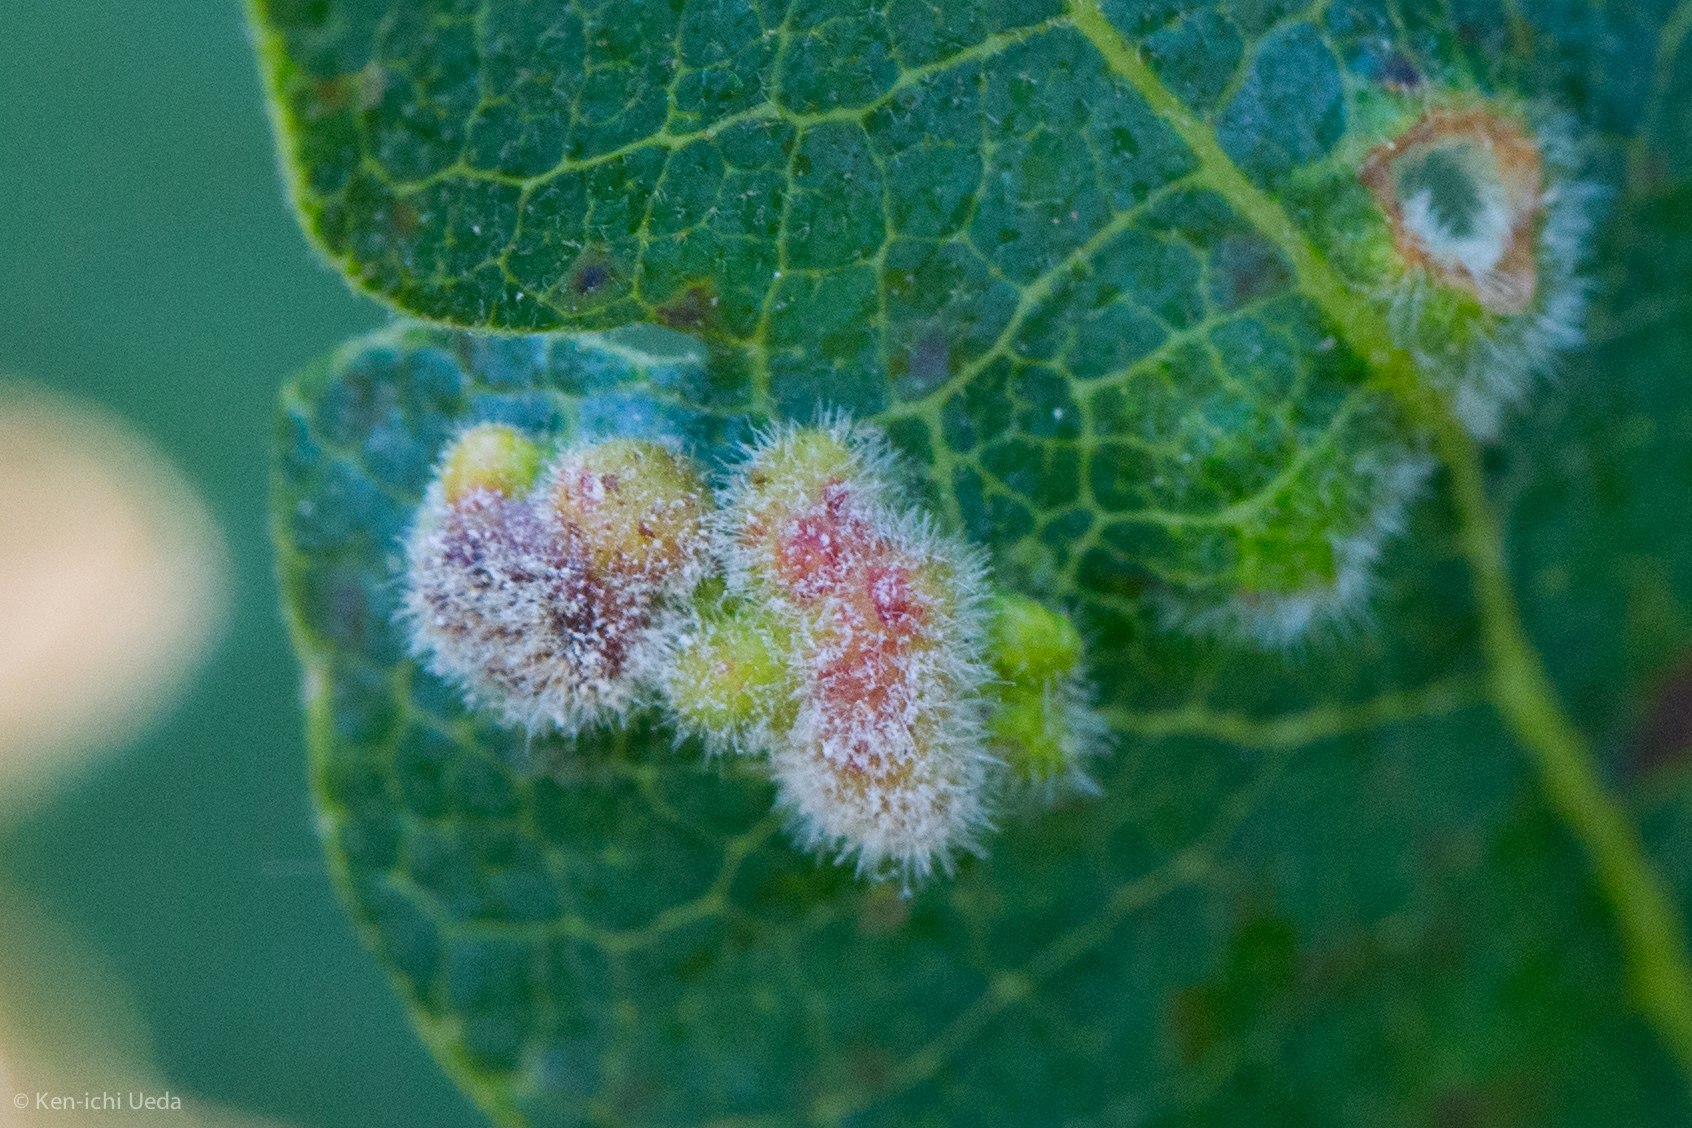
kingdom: Animalia
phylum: Arthropoda
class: Arachnida
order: Trombidiformes
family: Eriophyidae
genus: Aceria
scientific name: Aceria
